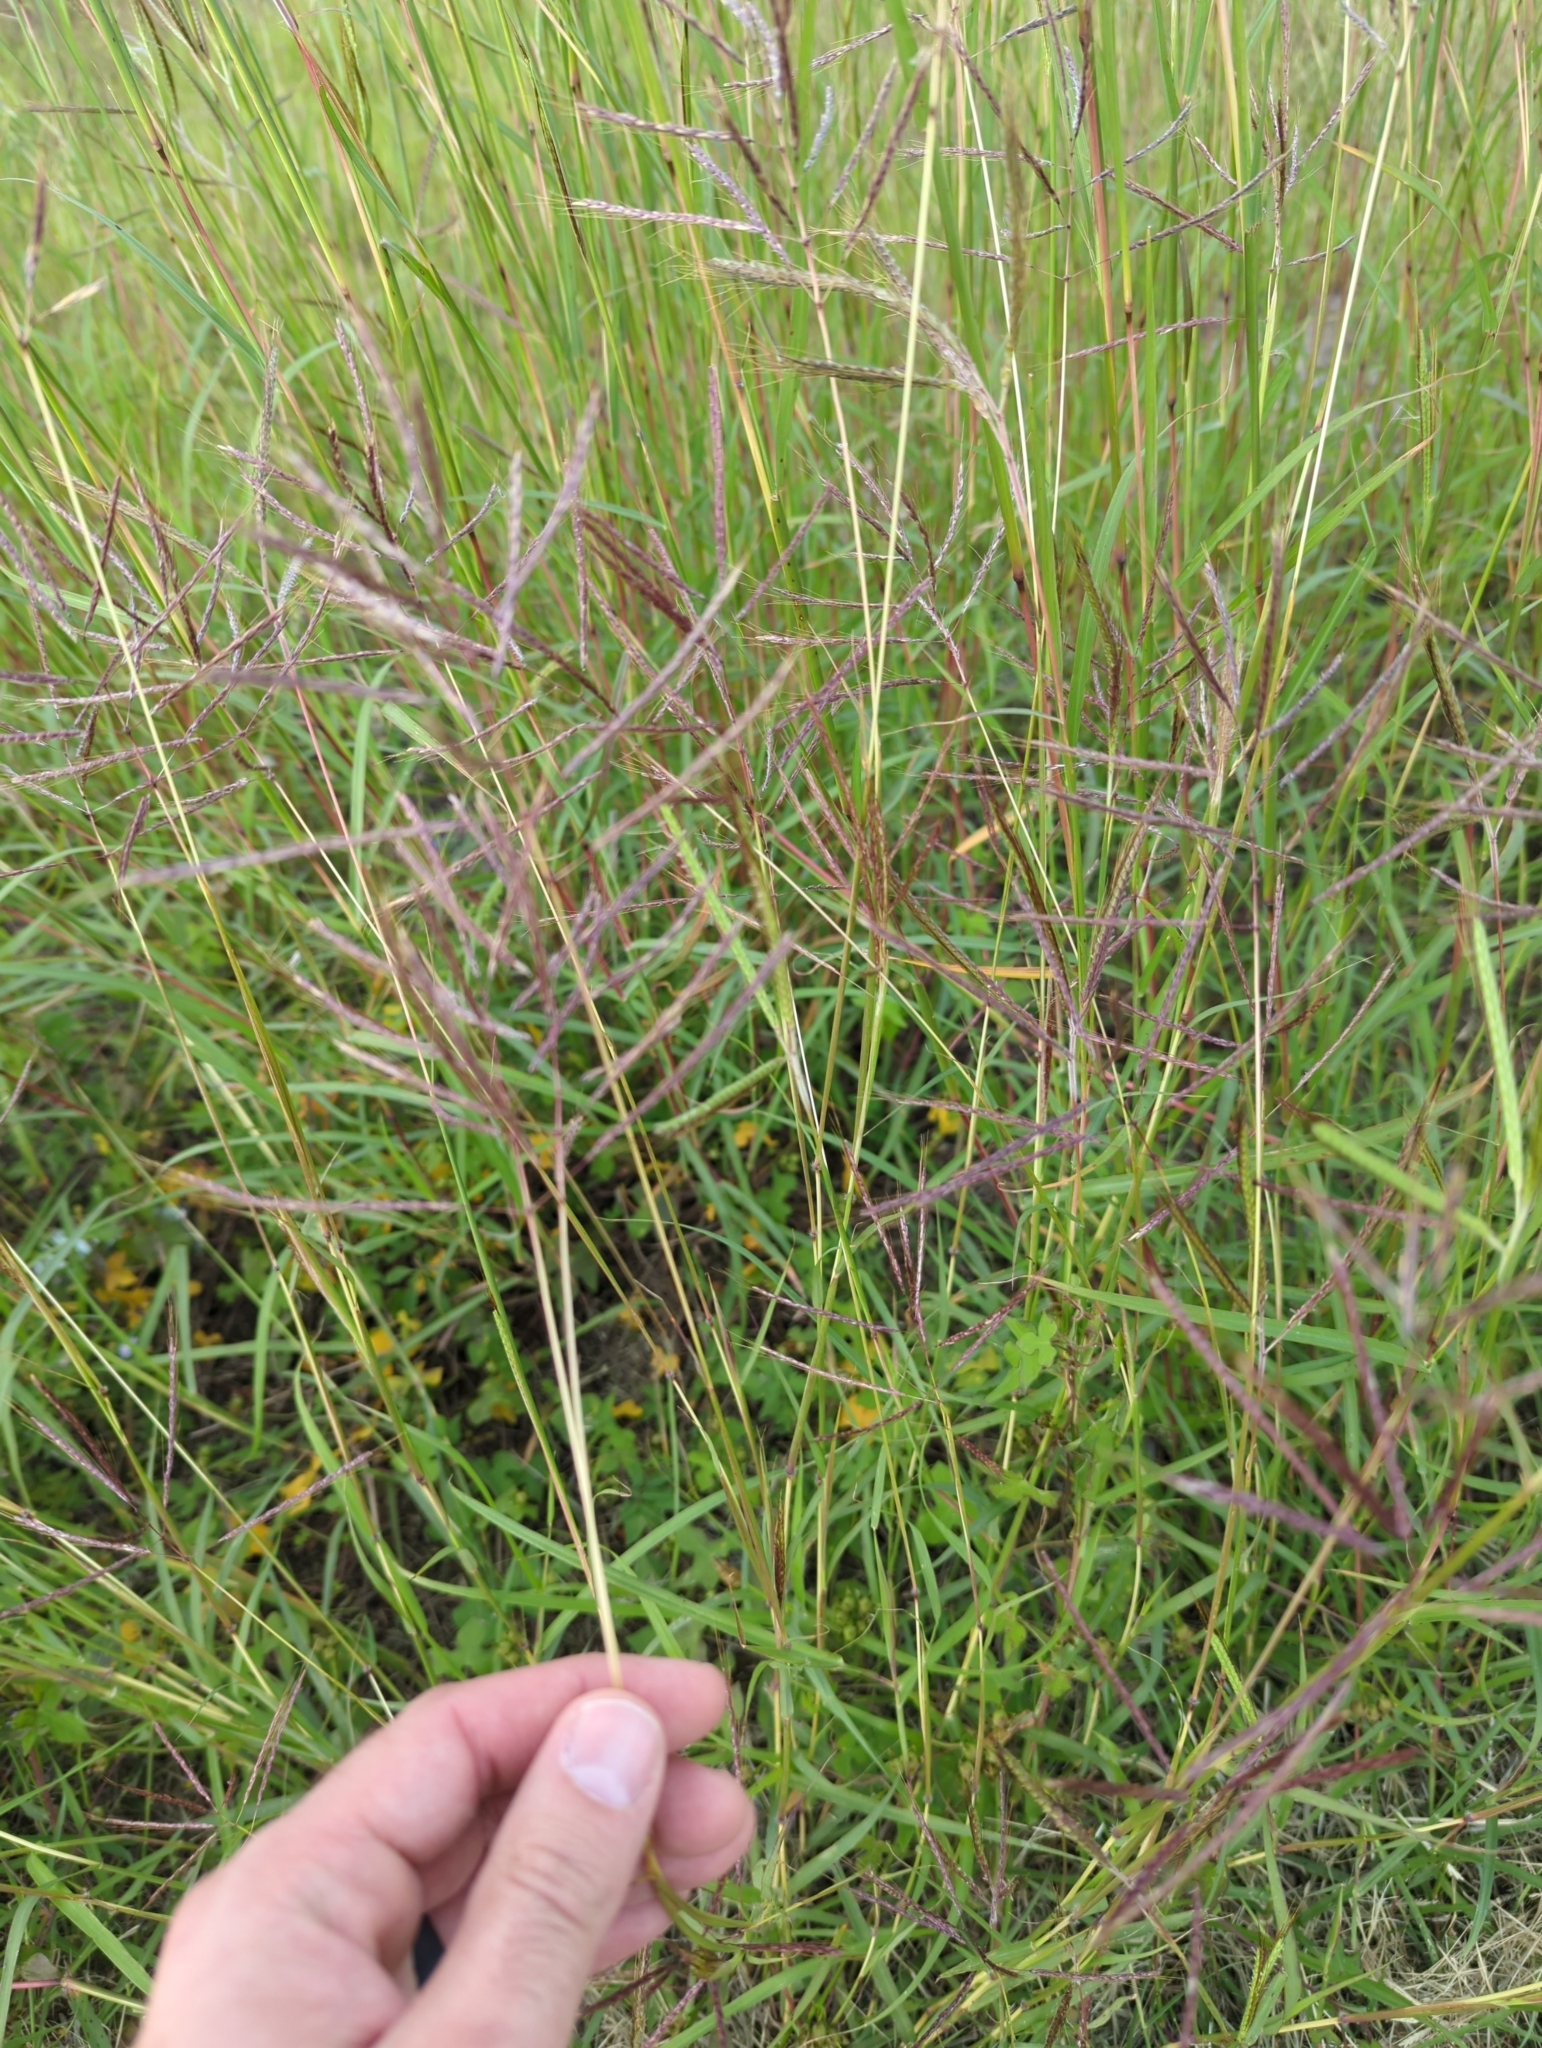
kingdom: Plantae
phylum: Tracheophyta
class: Liliopsida
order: Poales
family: Poaceae
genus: Bothriochloa
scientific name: Bothriochloa bladhii
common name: Caucasian bluestem
